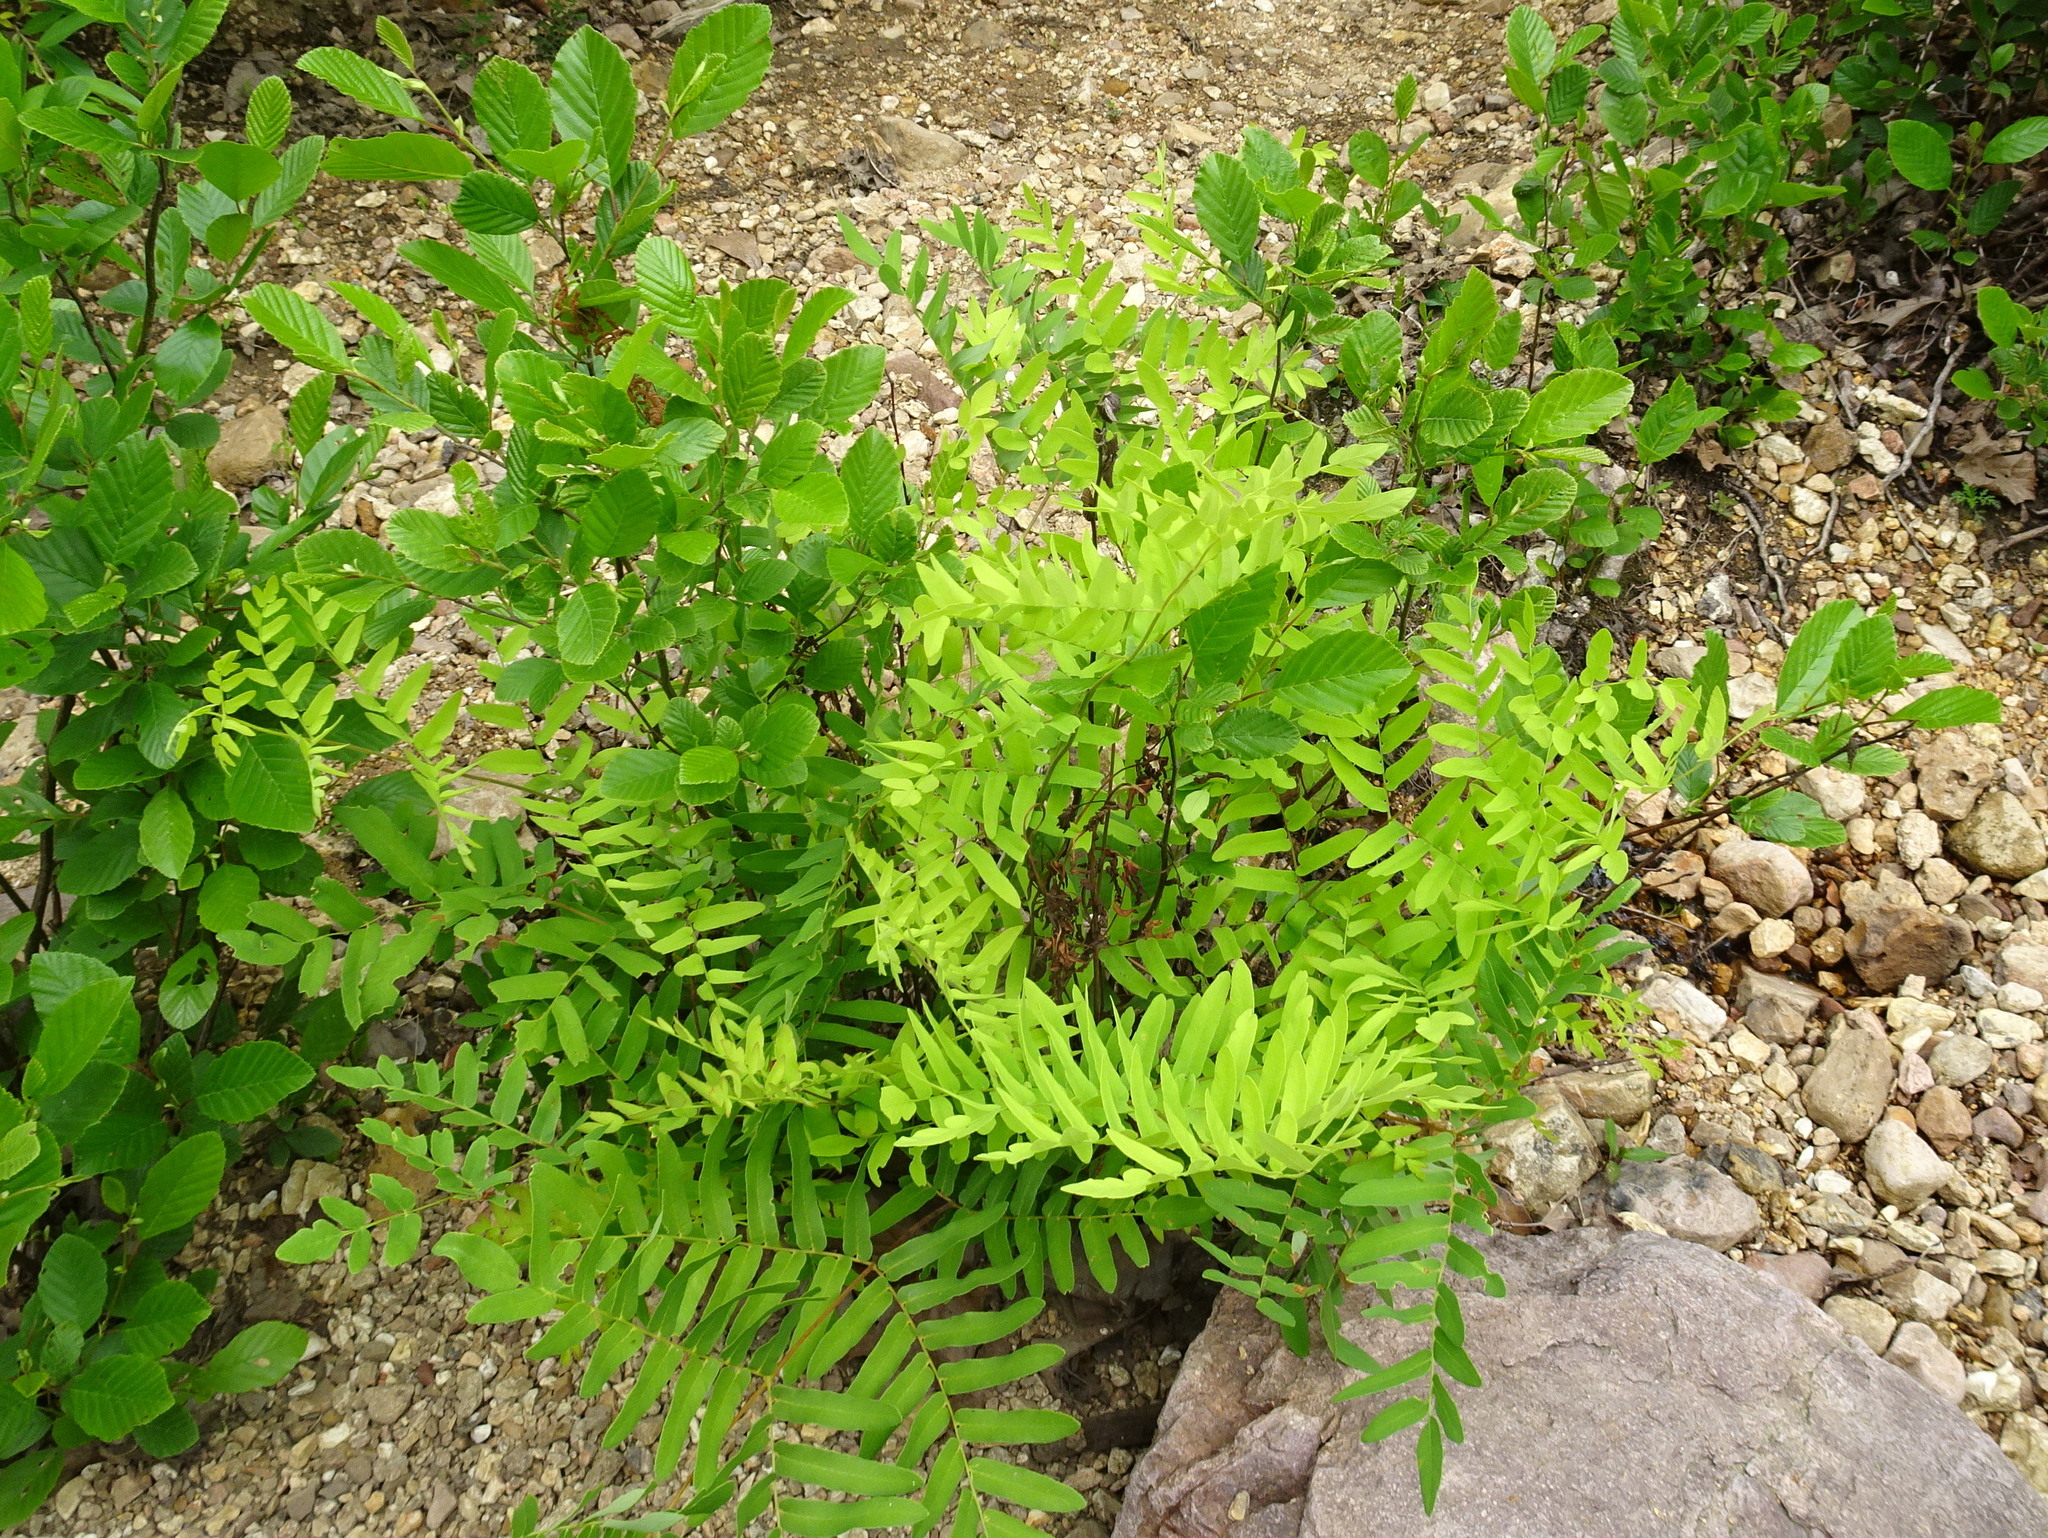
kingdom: Plantae
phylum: Tracheophyta
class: Polypodiopsida
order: Osmundales
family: Osmundaceae
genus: Osmunda
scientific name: Osmunda spectabilis
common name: American royal fern
